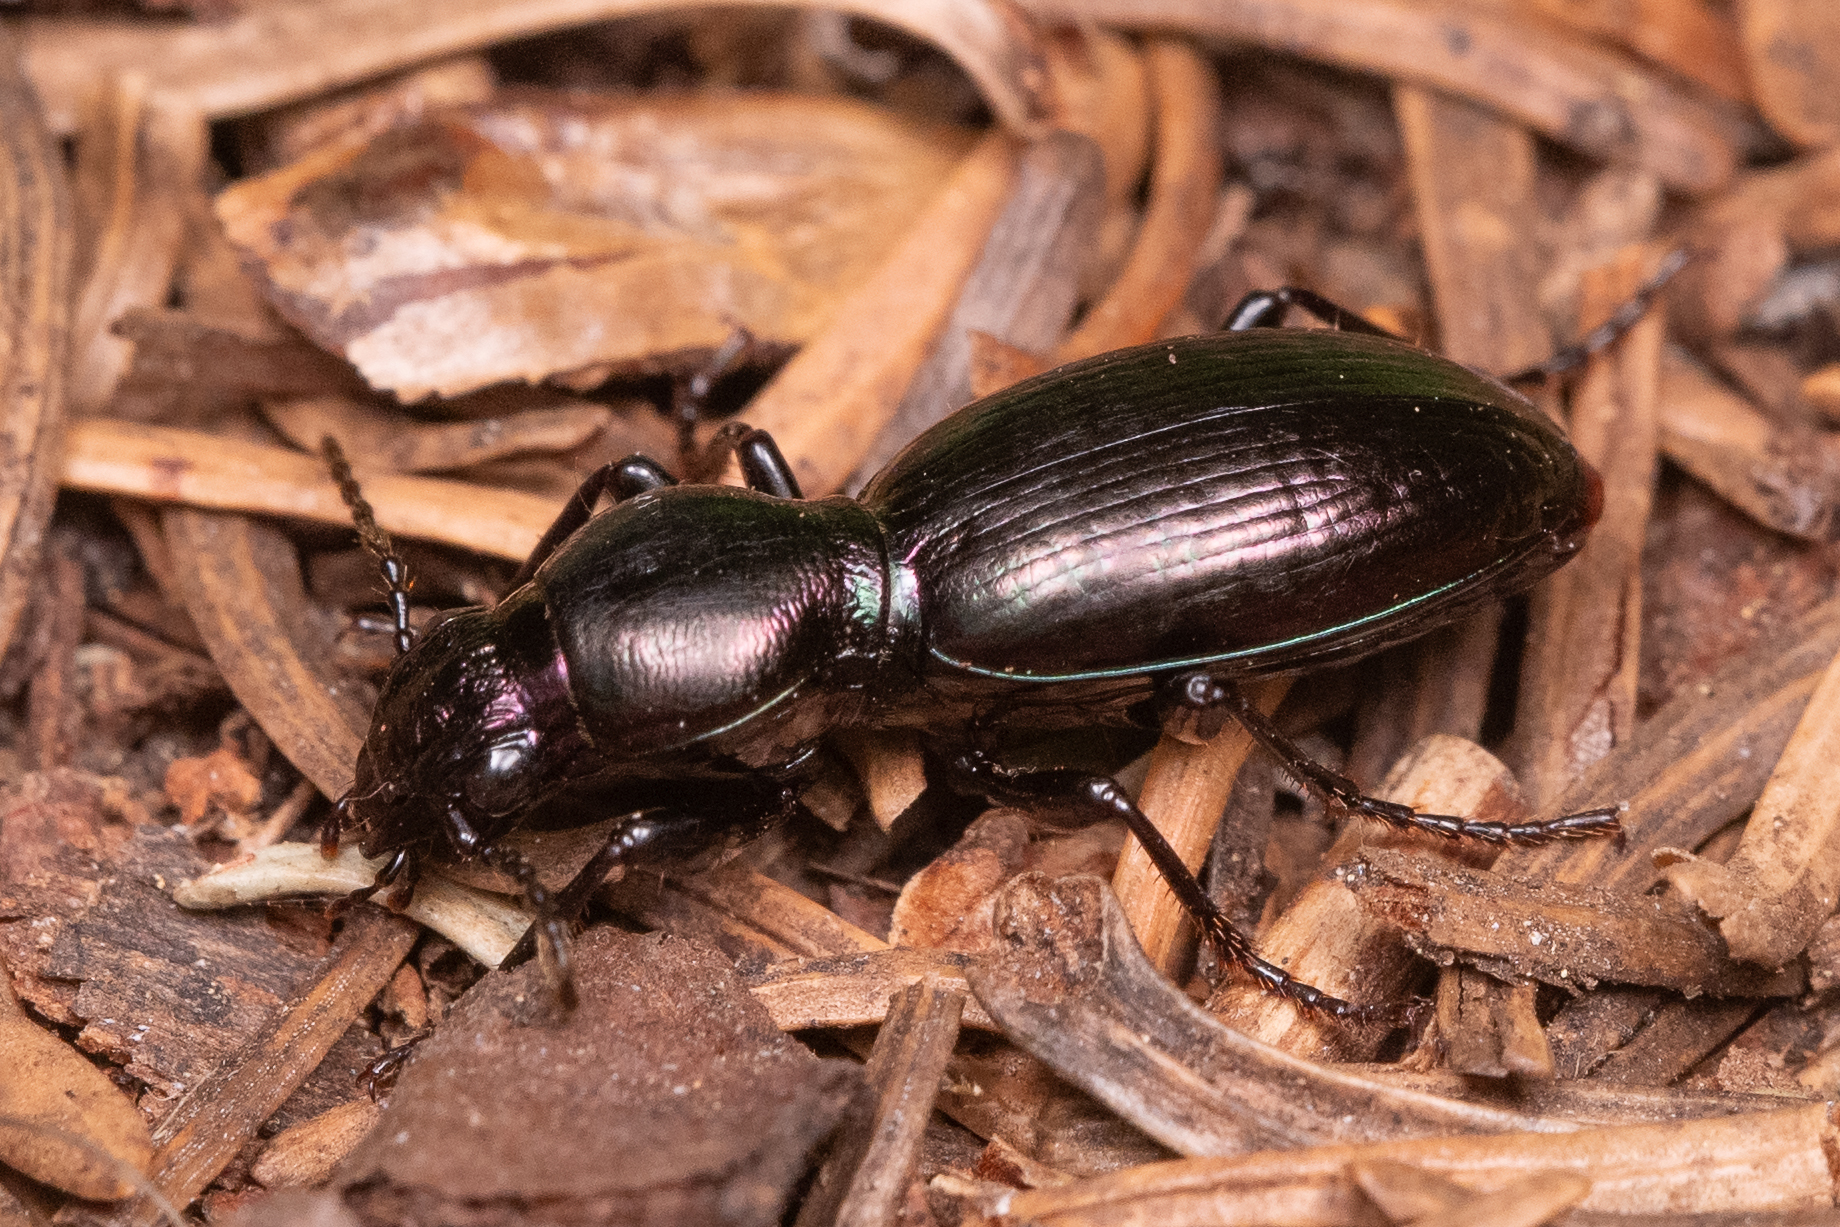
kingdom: Animalia
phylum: Arthropoda
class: Insecta
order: Coleoptera
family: Carabidae
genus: Zacotus
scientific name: Zacotus matthewsii
